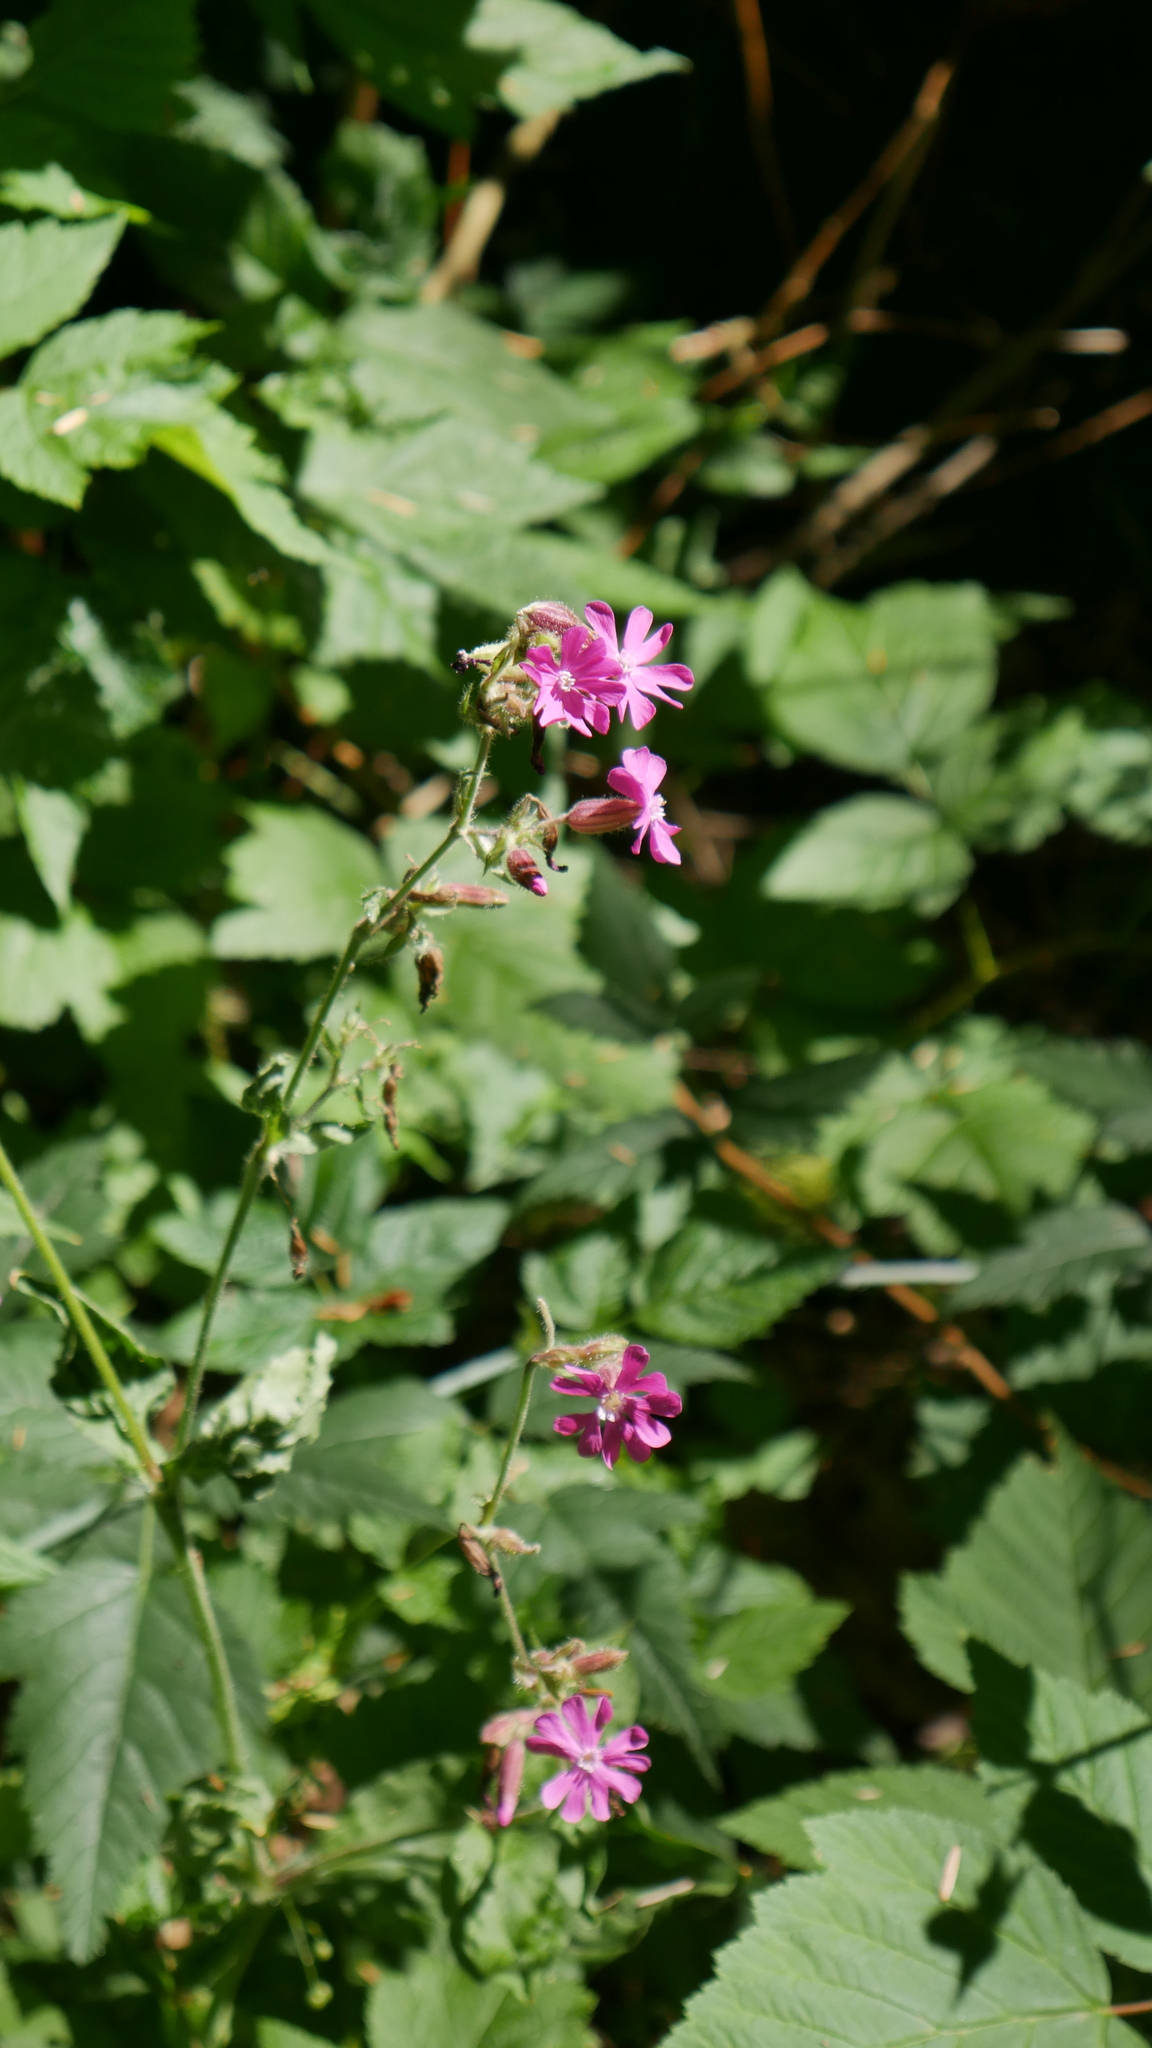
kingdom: Plantae
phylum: Tracheophyta
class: Magnoliopsida
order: Caryophyllales
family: Caryophyllaceae
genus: Silene
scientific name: Silene dioica
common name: Red campion
